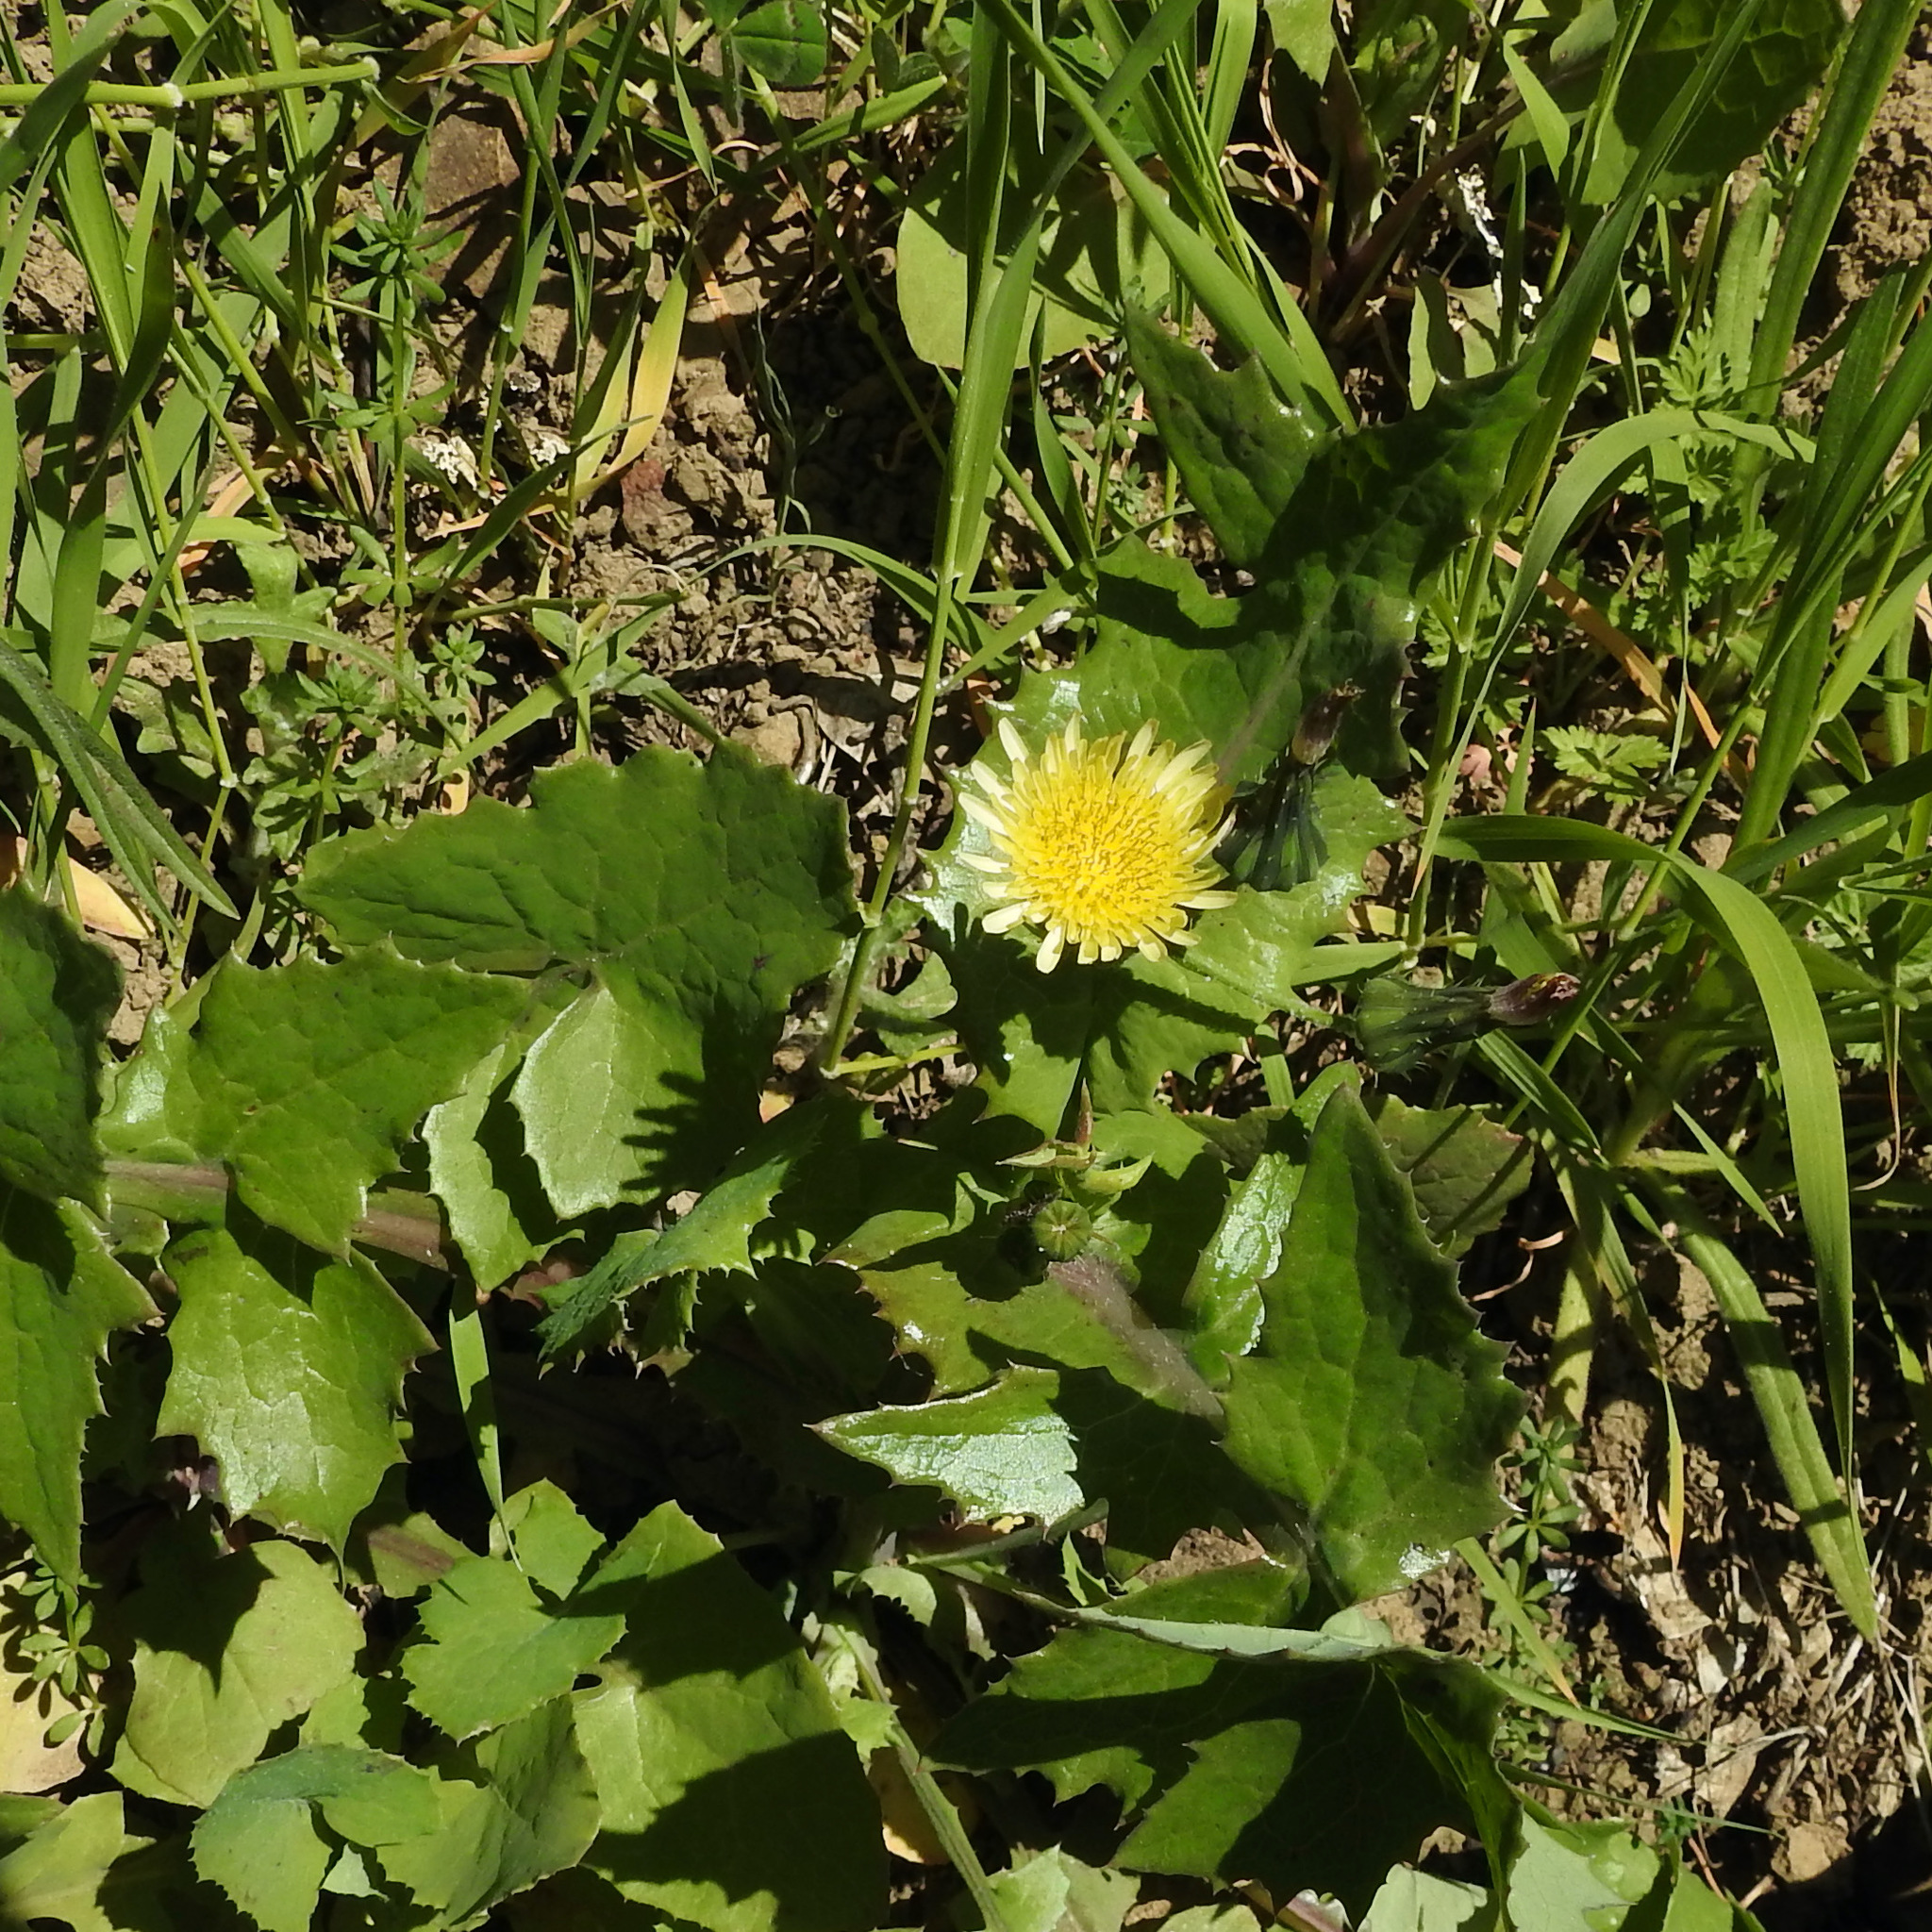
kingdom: Plantae
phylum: Tracheophyta
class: Magnoliopsida
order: Asterales
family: Asteraceae
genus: Sonchus
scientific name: Sonchus asper
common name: Prickly sow-thistle
